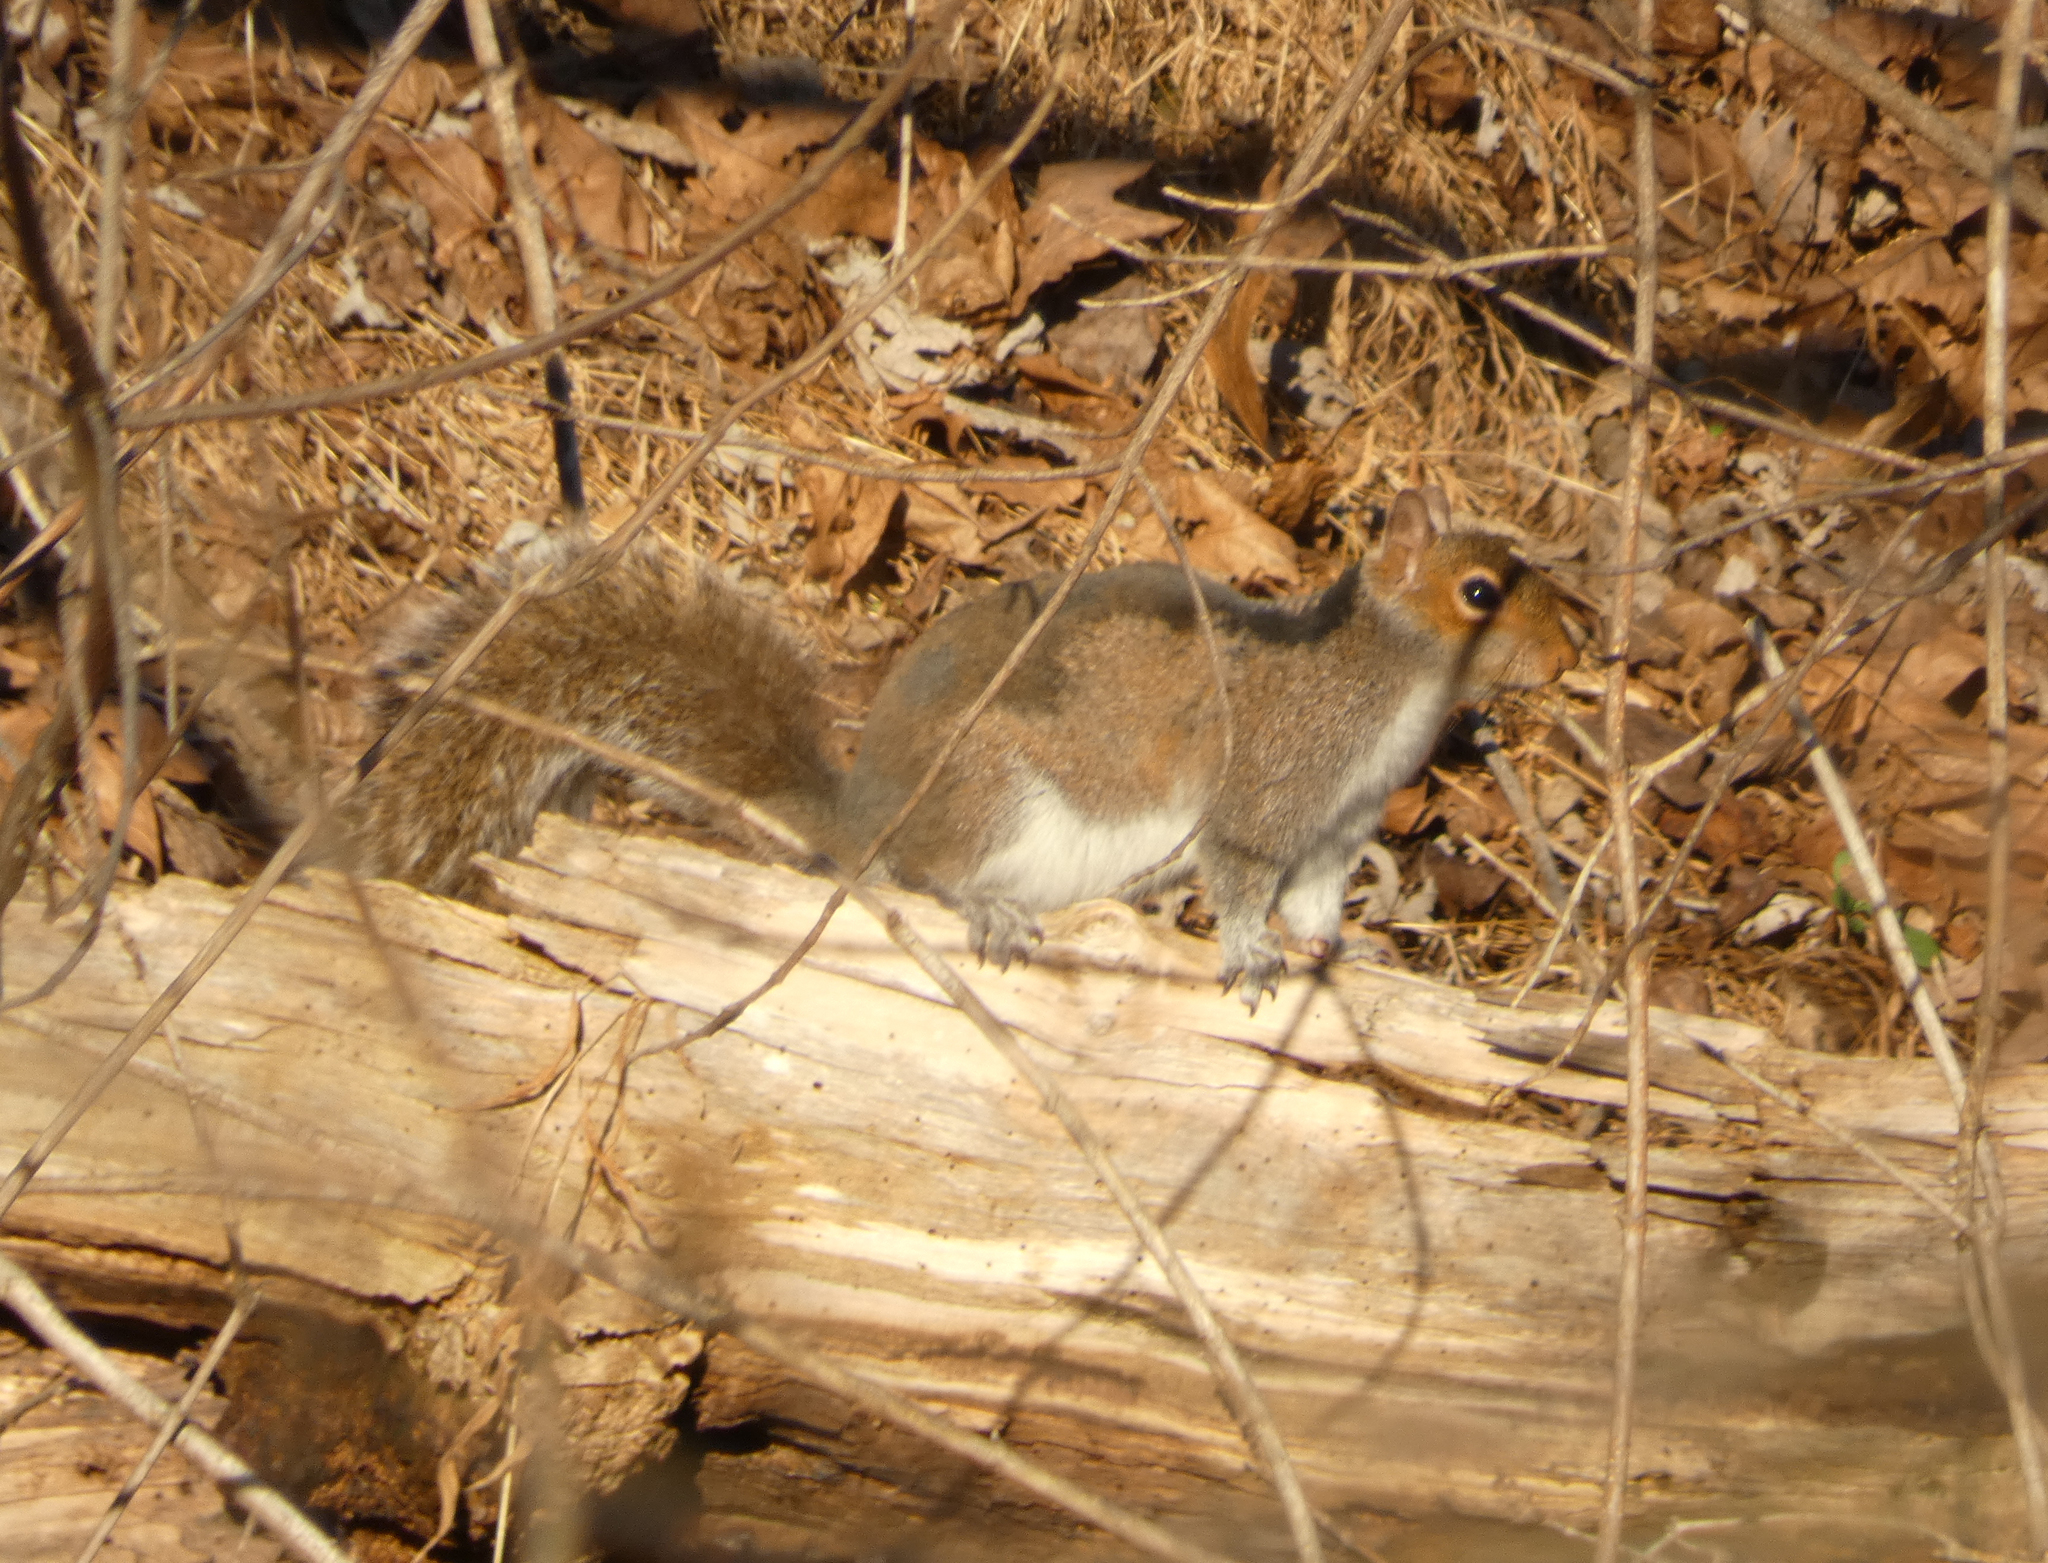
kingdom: Animalia
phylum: Chordata
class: Mammalia
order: Rodentia
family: Sciuridae
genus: Sciurus
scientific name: Sciurus carolinensis
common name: Eastern gray squirrel
